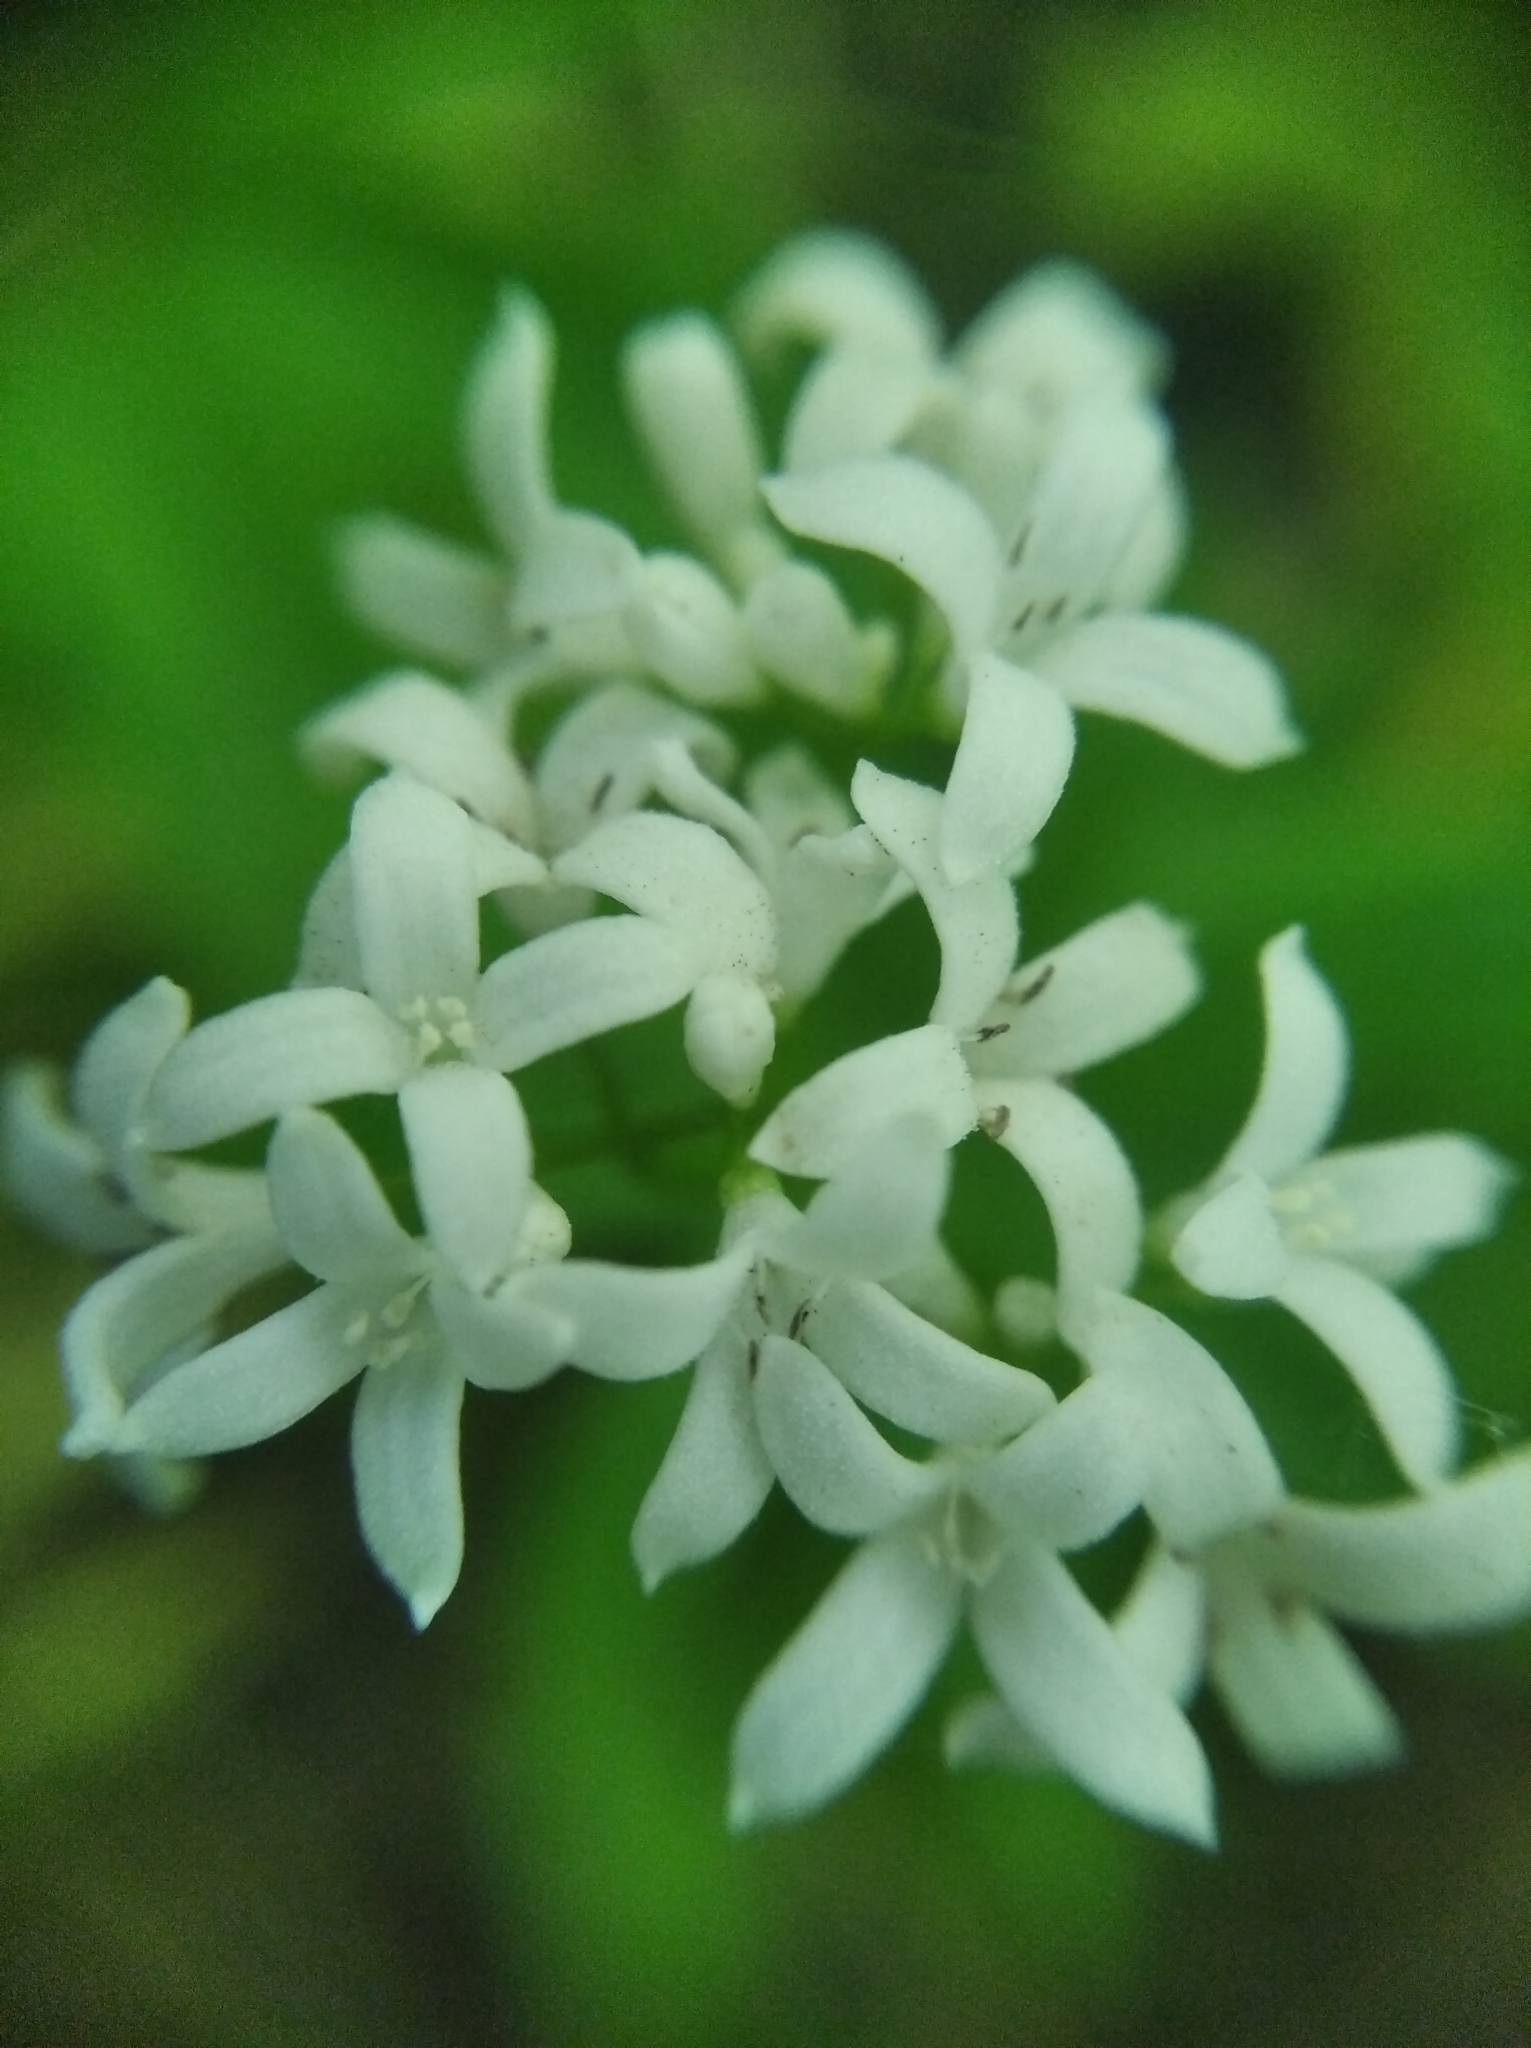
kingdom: Plantae
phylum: Tracheophyta
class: Magnoliopsida
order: Gentianales
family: Rubiaceae
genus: Galium
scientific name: Galium odoratum
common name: Sweet woodruff
